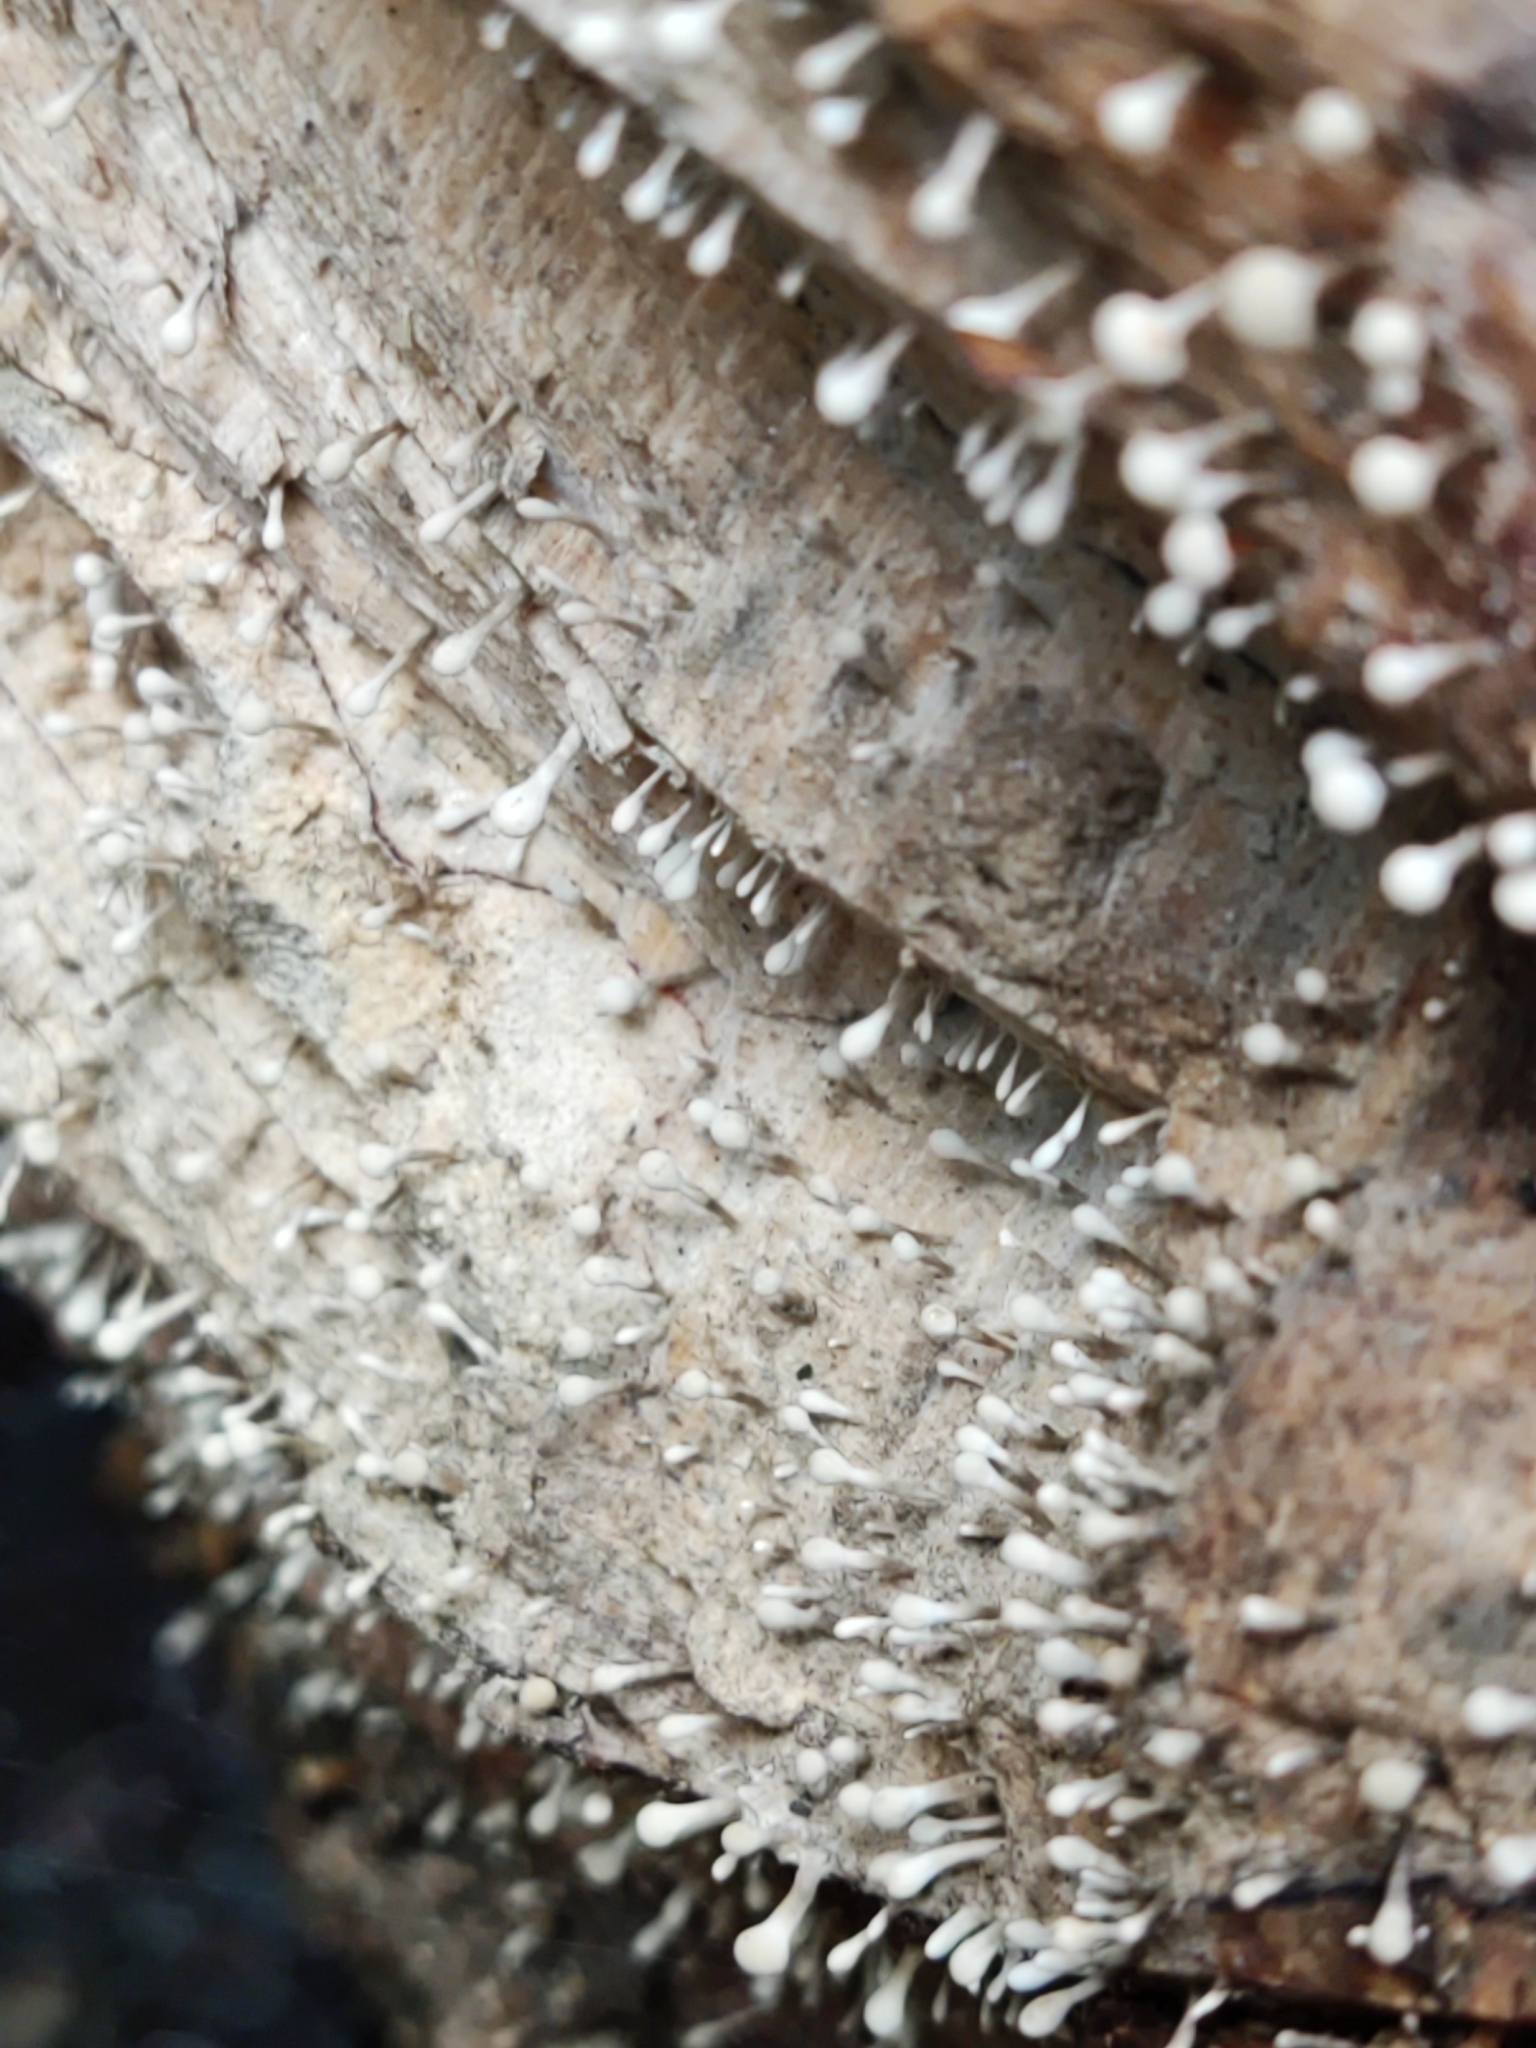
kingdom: Fungi
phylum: Basidiomycota
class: Atractiellomycetes
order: Atractiellales
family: Phleogenaceae
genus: Phleogena
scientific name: Phleogena faginea
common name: Fenugreek stalkball
